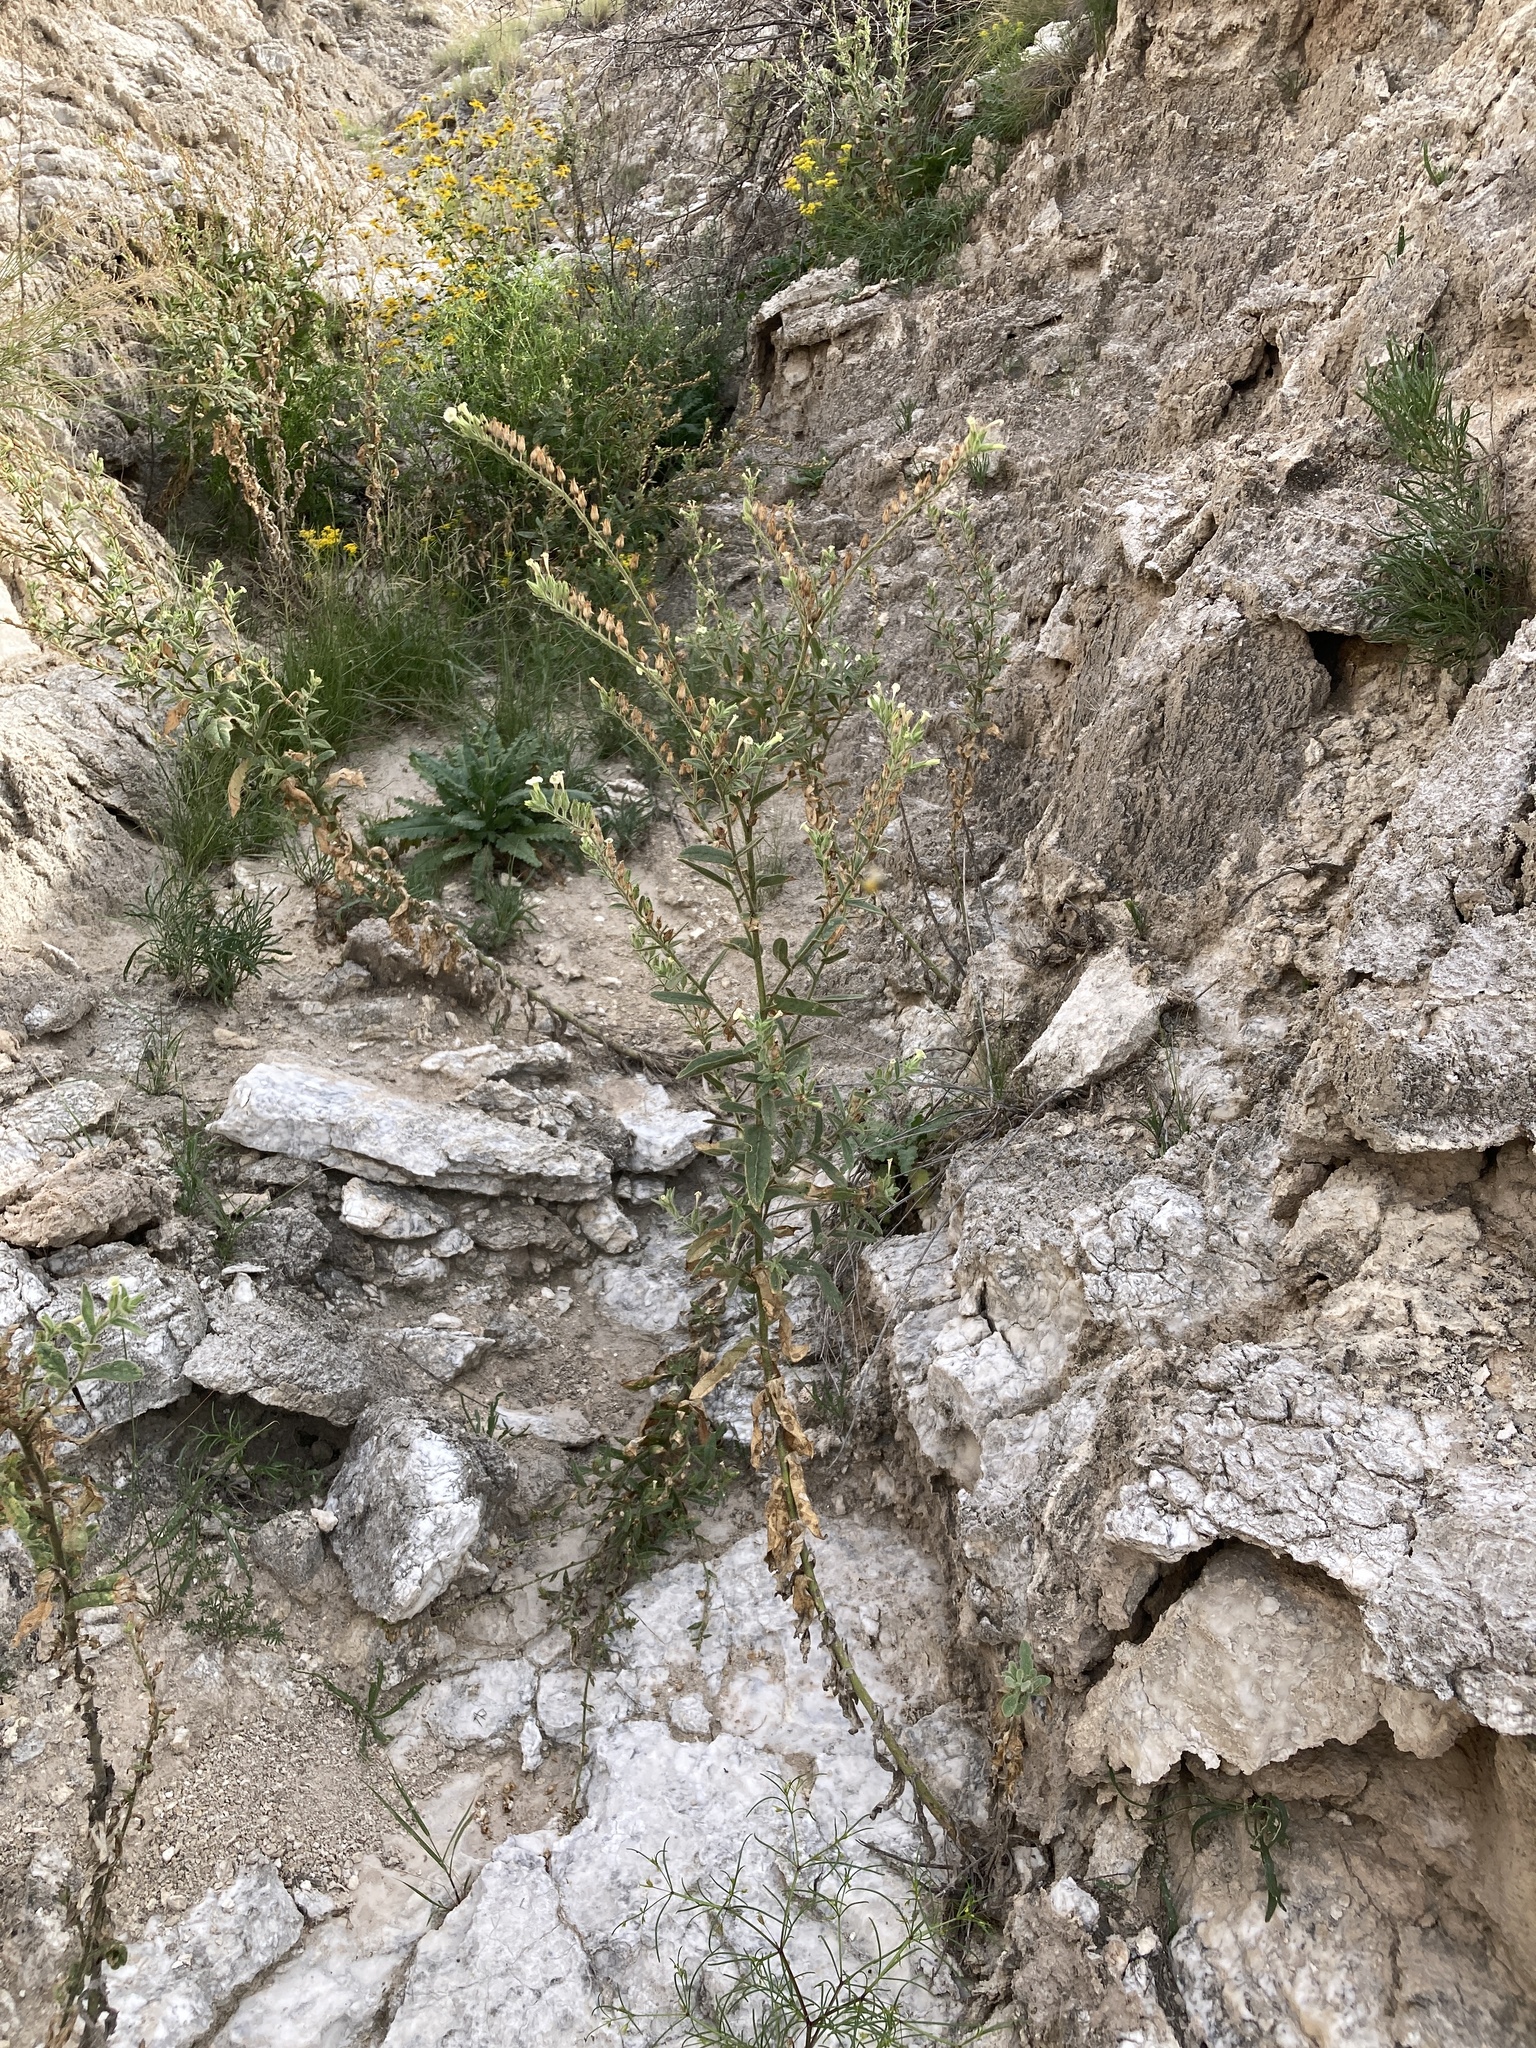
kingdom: Plantae
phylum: Tracheophyta
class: Magnoliopsida
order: Solanales
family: Solanaceae
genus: Nicotiana
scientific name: Nicotiana obtusifolia
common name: Desert tobacco
